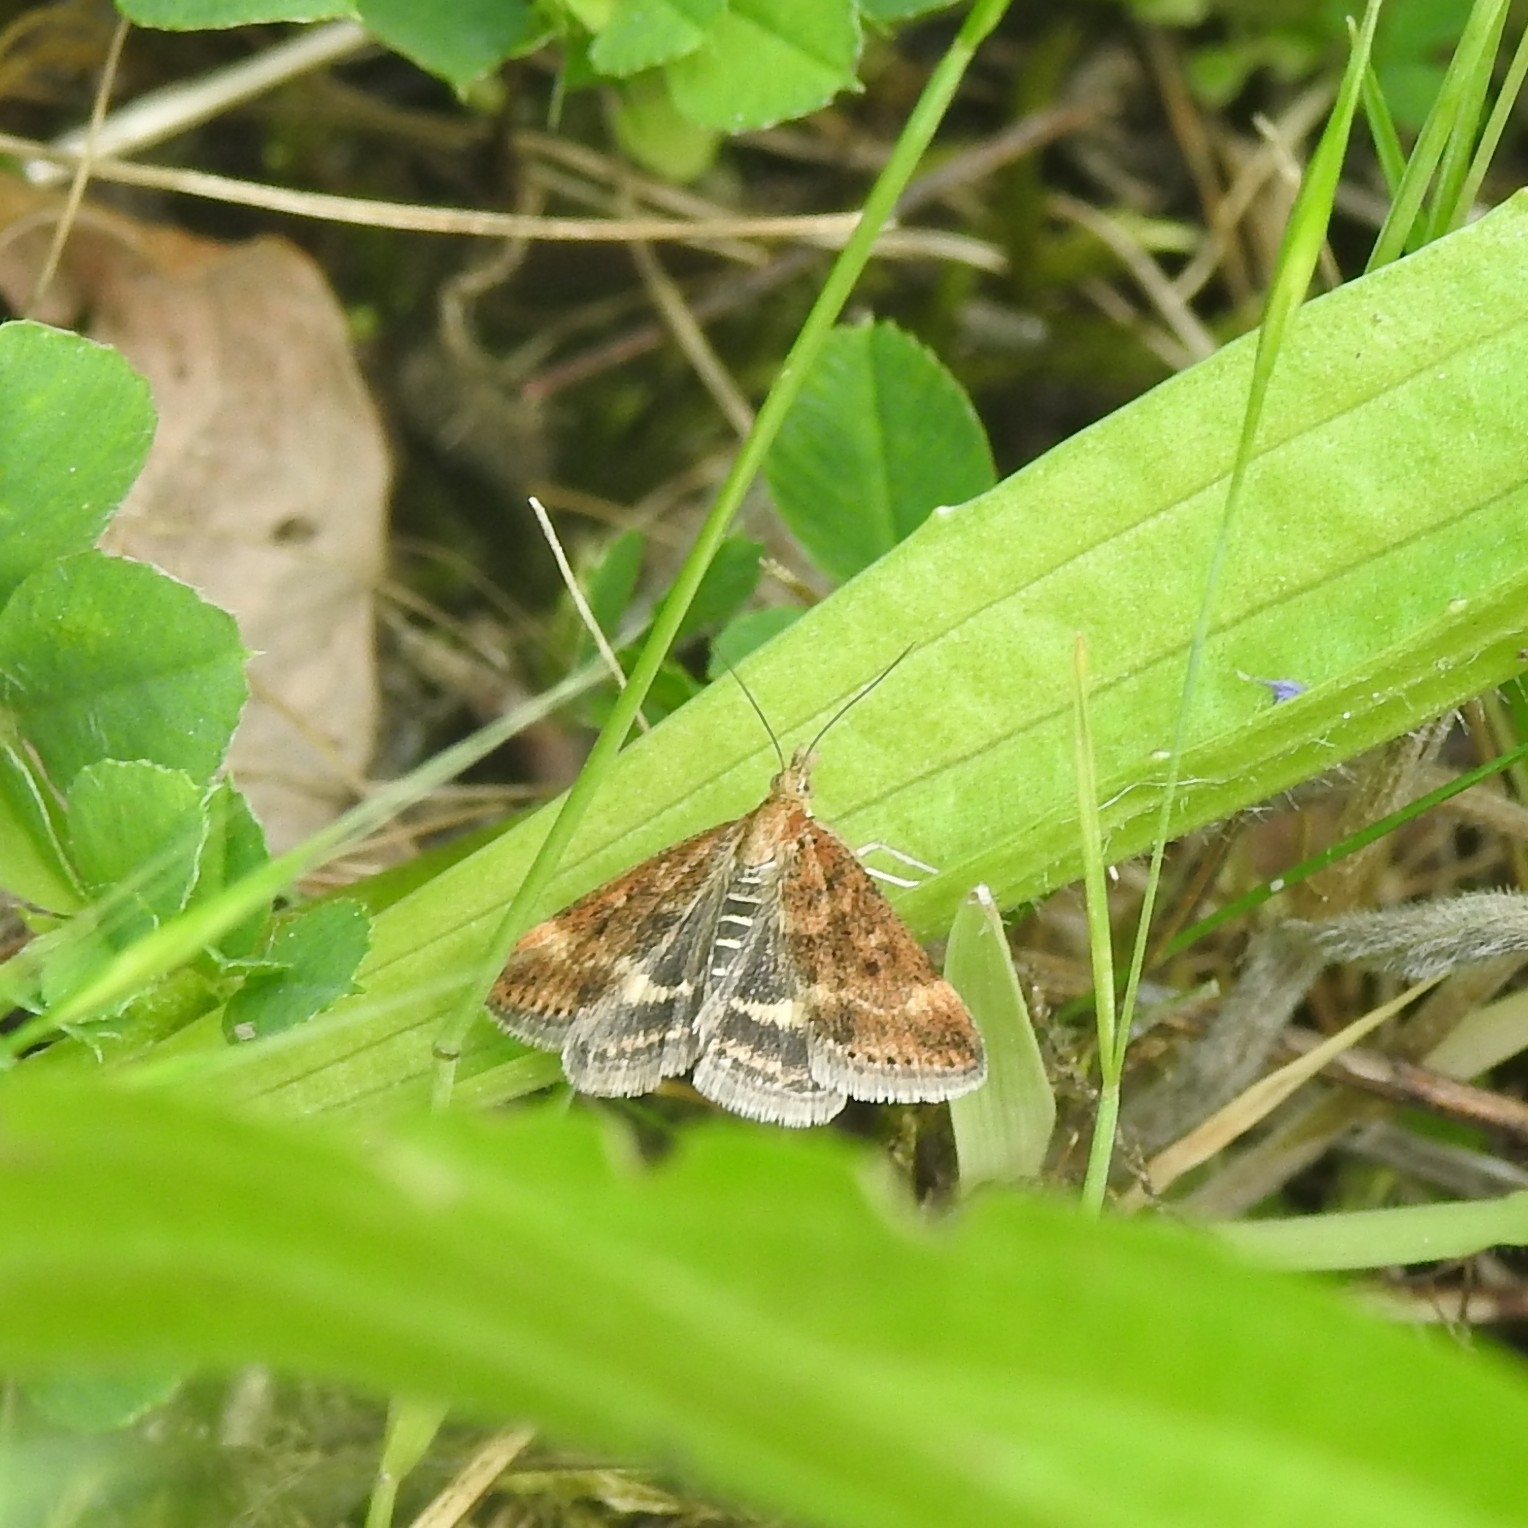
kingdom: Animalia
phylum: Arthropoda
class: Insecta
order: Lepidoptera
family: Crambidae
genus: Pyrausta
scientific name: Pyrausta despicata
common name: Straw-barred pearl
